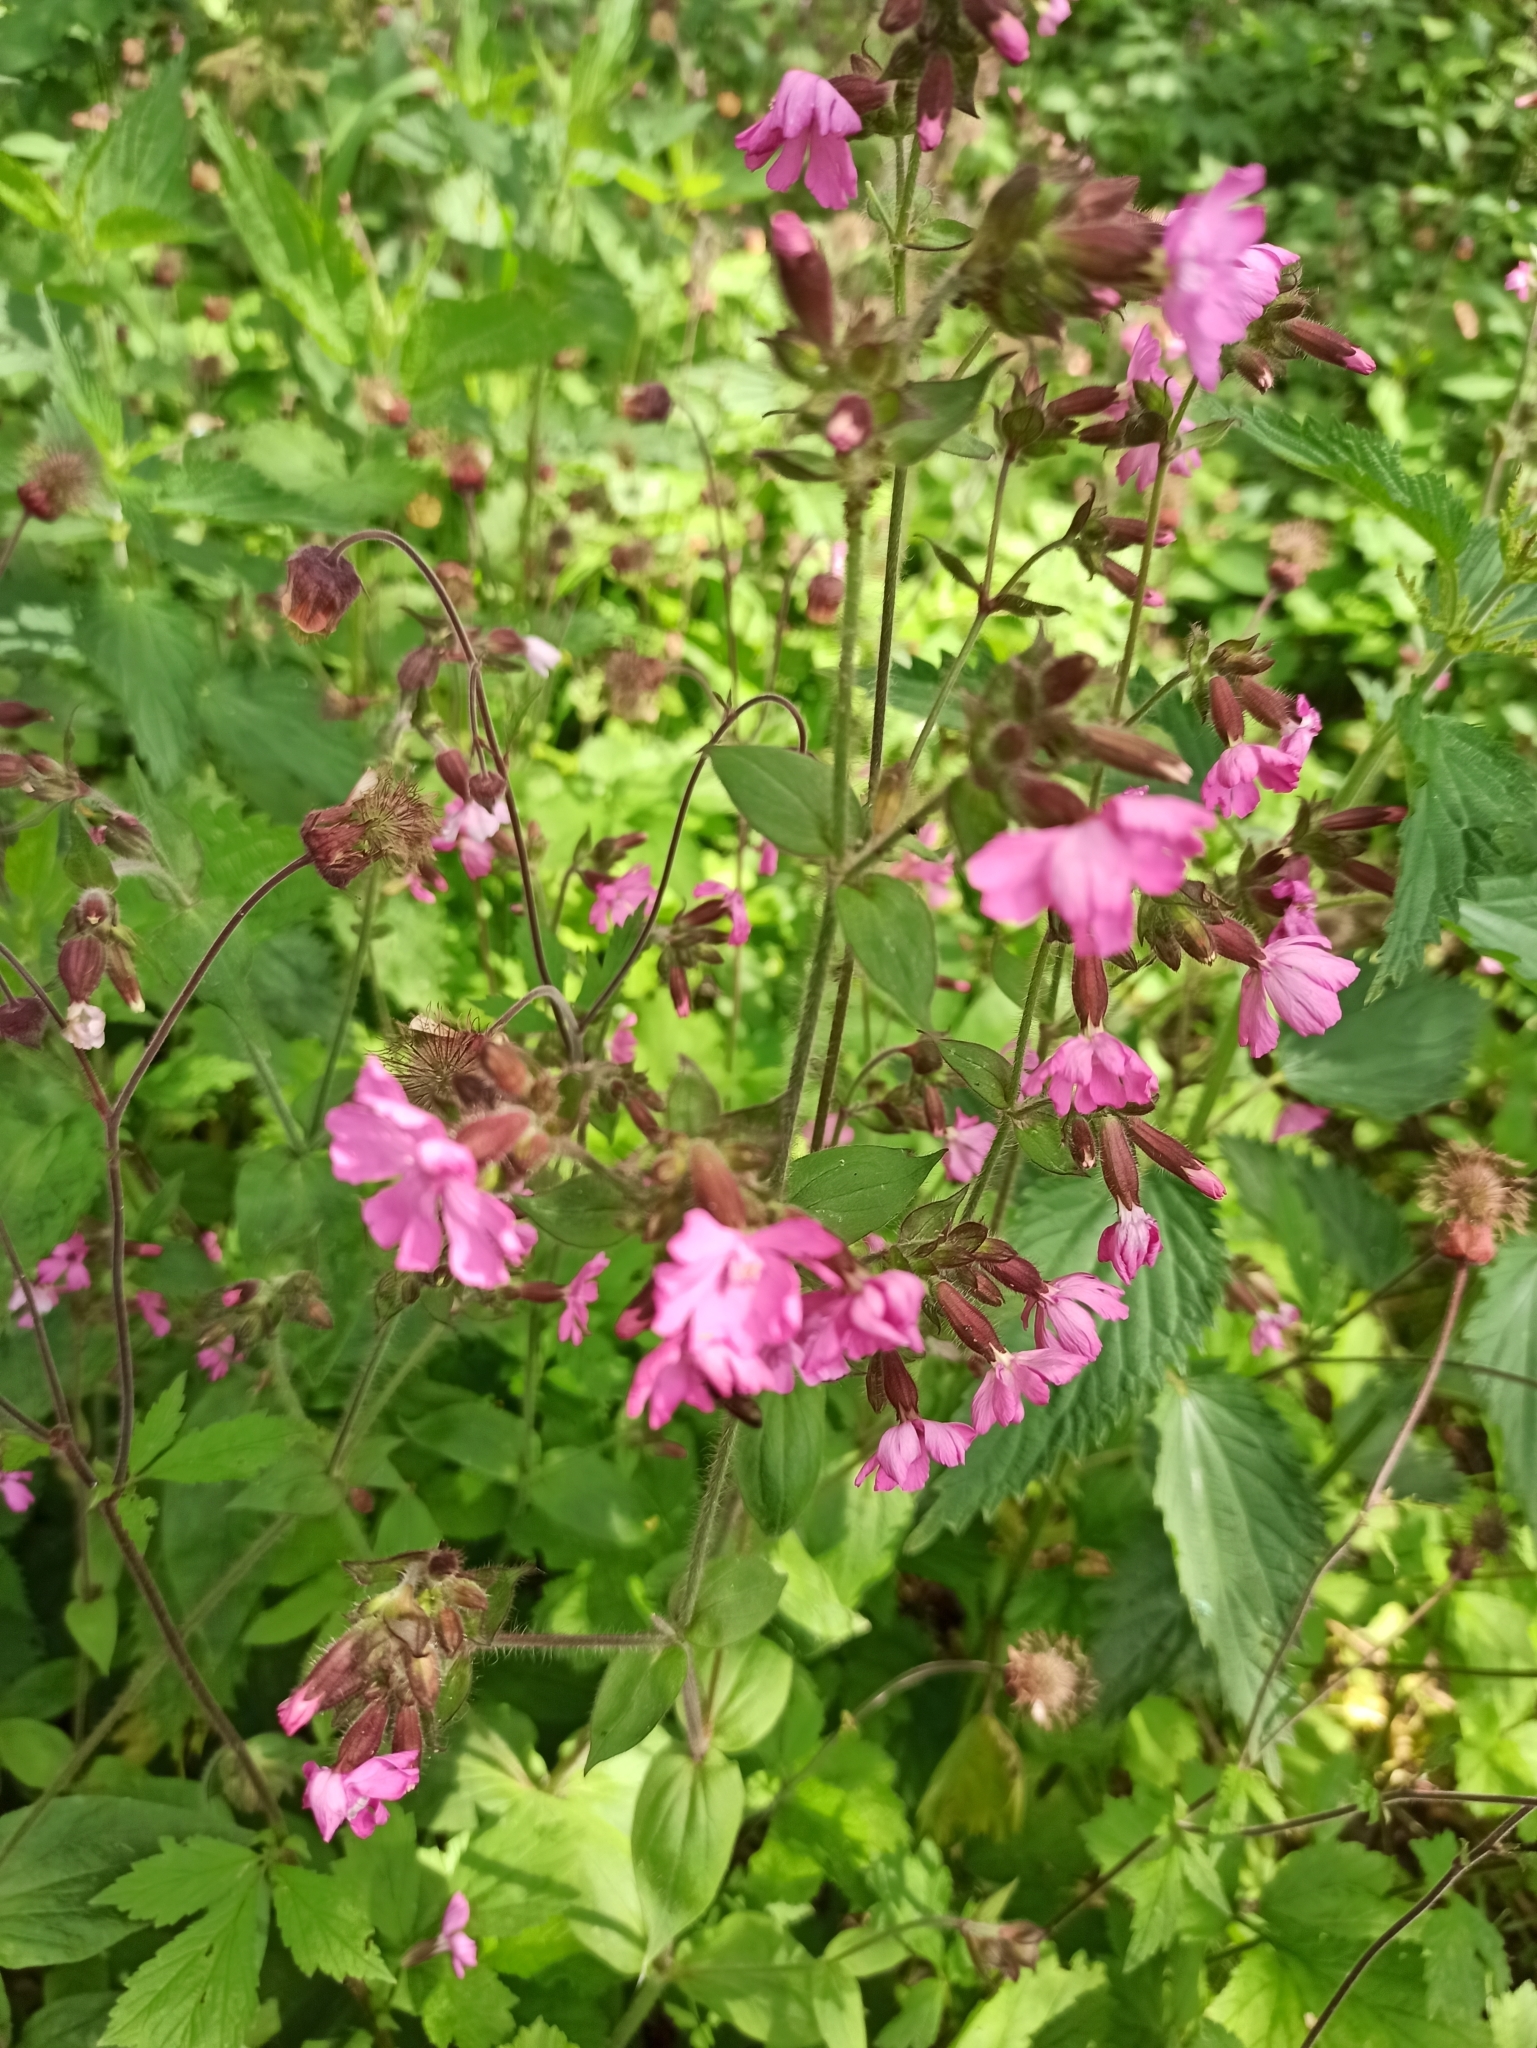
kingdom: Plantae
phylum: Tracheophyta
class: Magnoliopsida
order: Caryophyllales
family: Caryophyllaceae
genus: Silene
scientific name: Silene dioica
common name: Red campion
